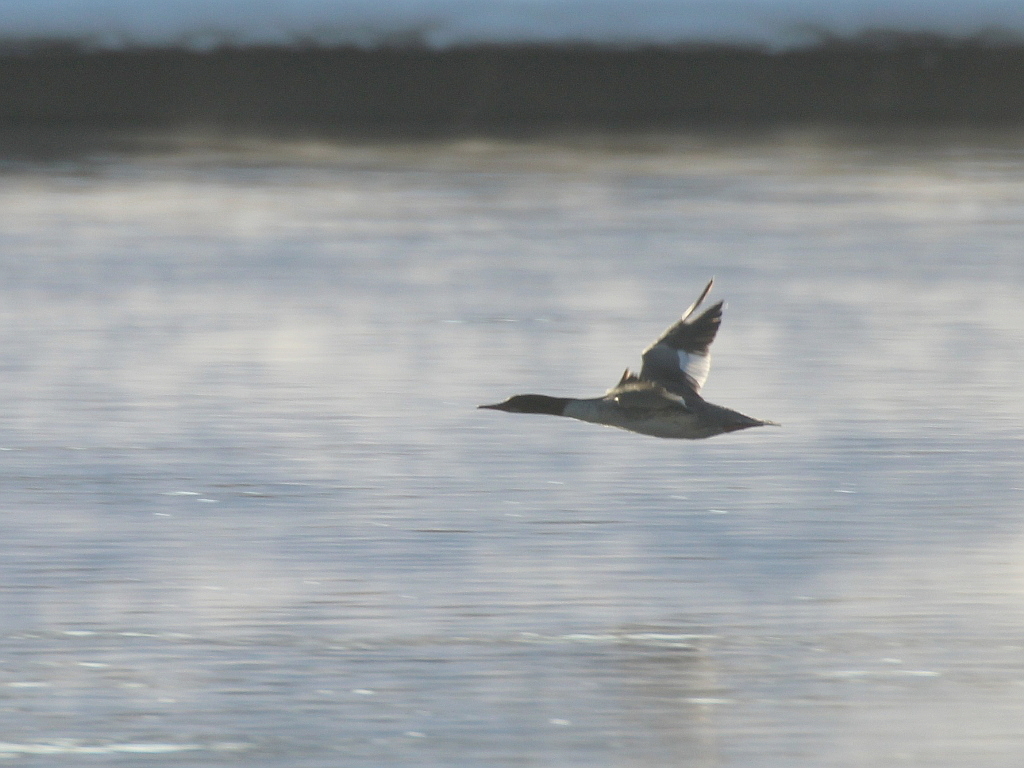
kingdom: Animalia
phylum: Chordata
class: Aves
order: Anseriformes
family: Anatidae
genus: Mergus
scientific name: Mergus merganser
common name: Common merganser
